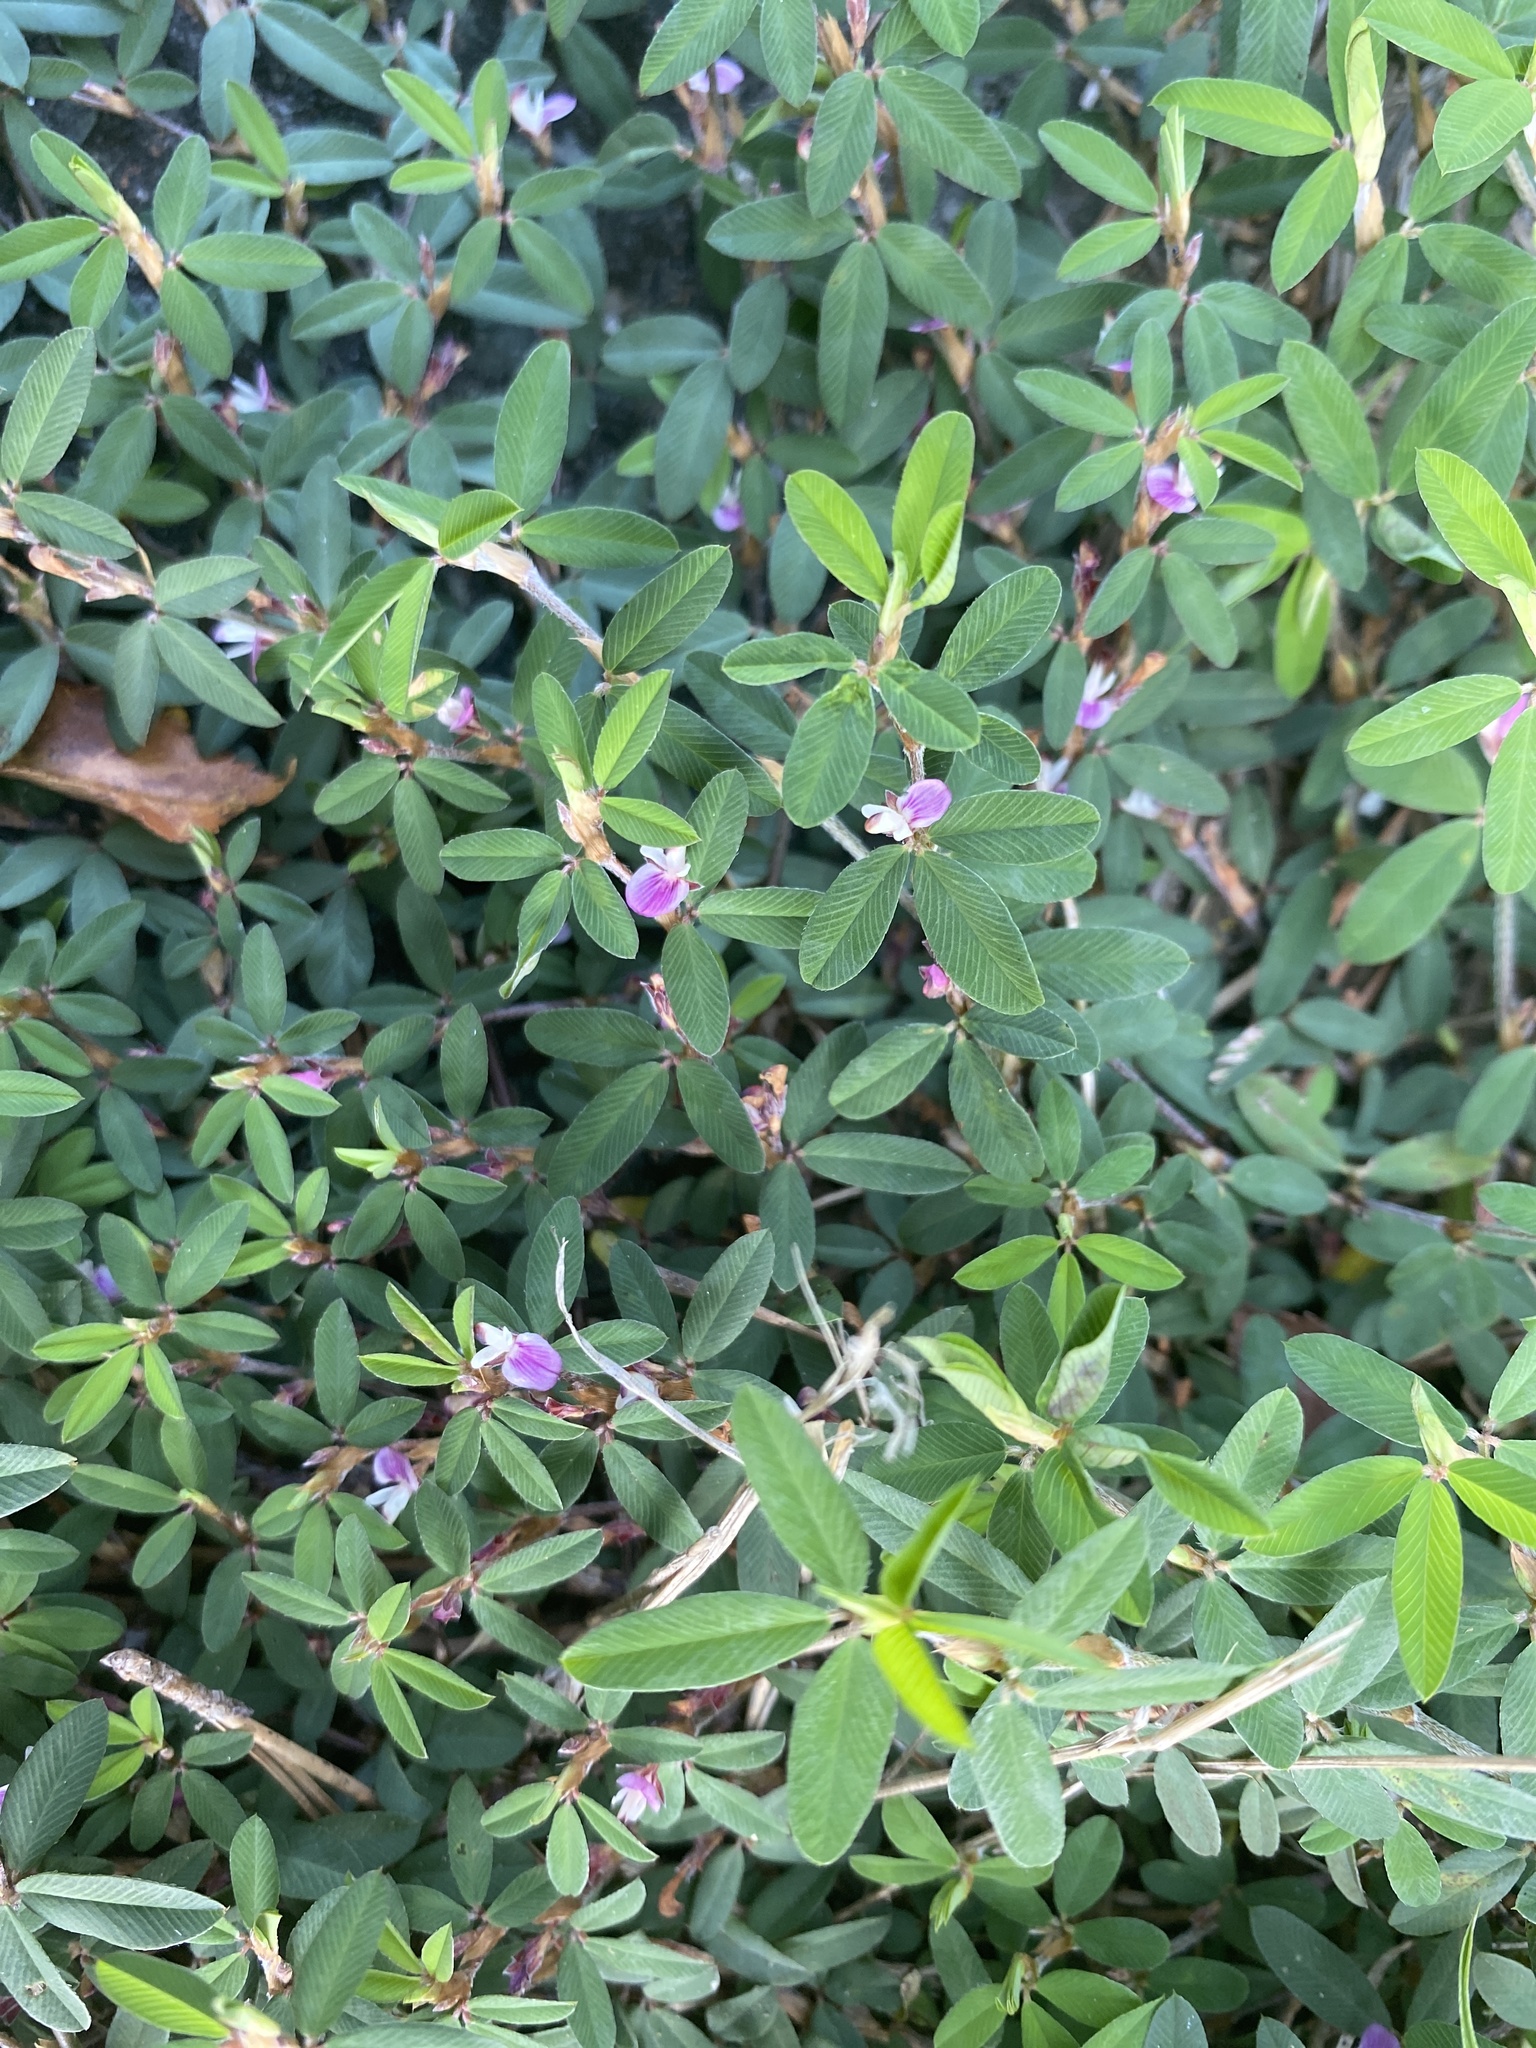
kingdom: Plantae
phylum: Tracheophyta
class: Magnoliopsida
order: Fabales
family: Fabaceae
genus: Kummerowia
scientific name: Kummerowia striata
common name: Japanese clover
